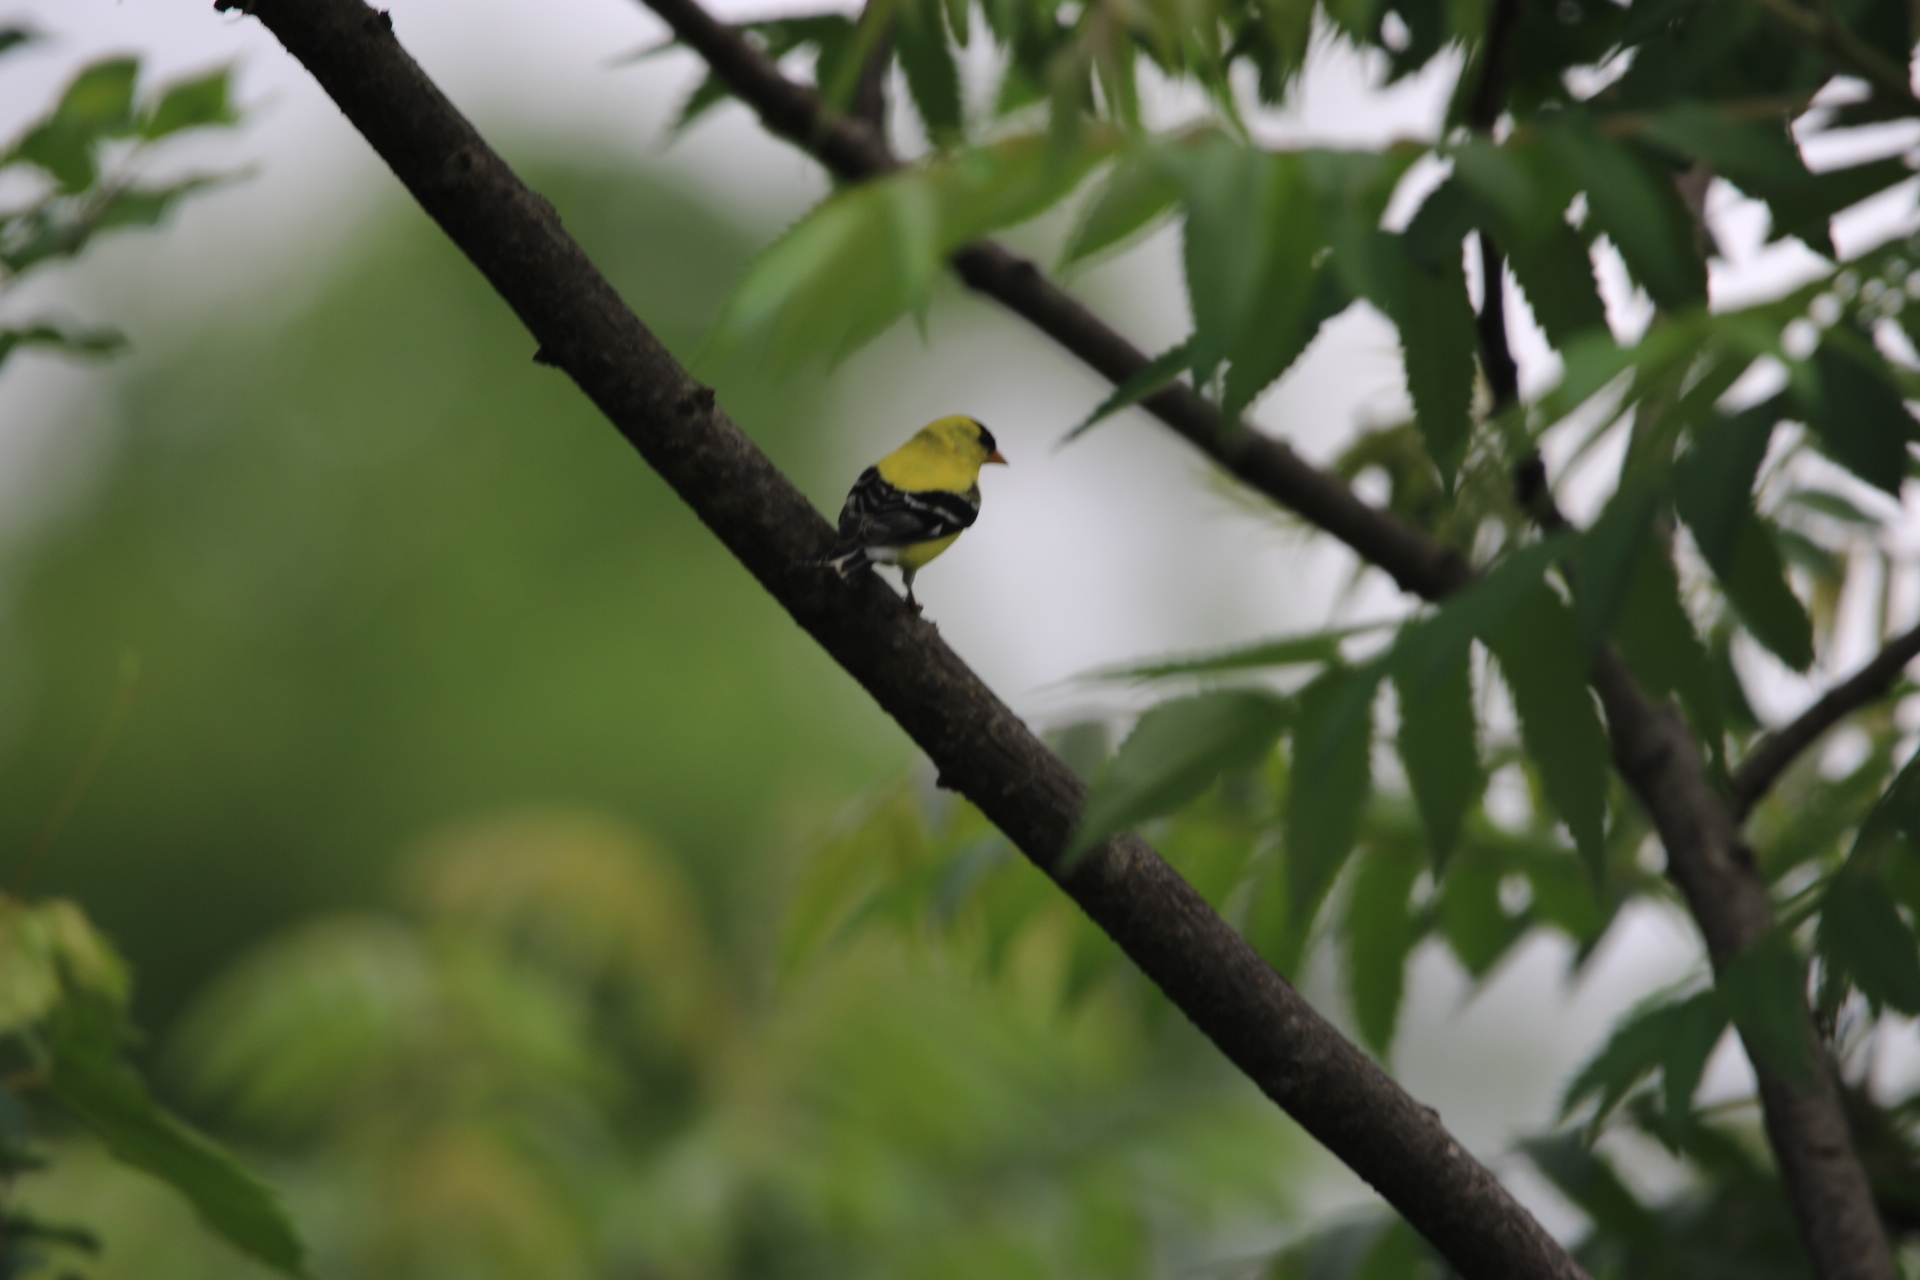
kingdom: Animalia
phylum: Chordata
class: Aves
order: Passeriformes
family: Fringillidae
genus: Spinus
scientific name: Spinus tristis
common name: American goldfinch
